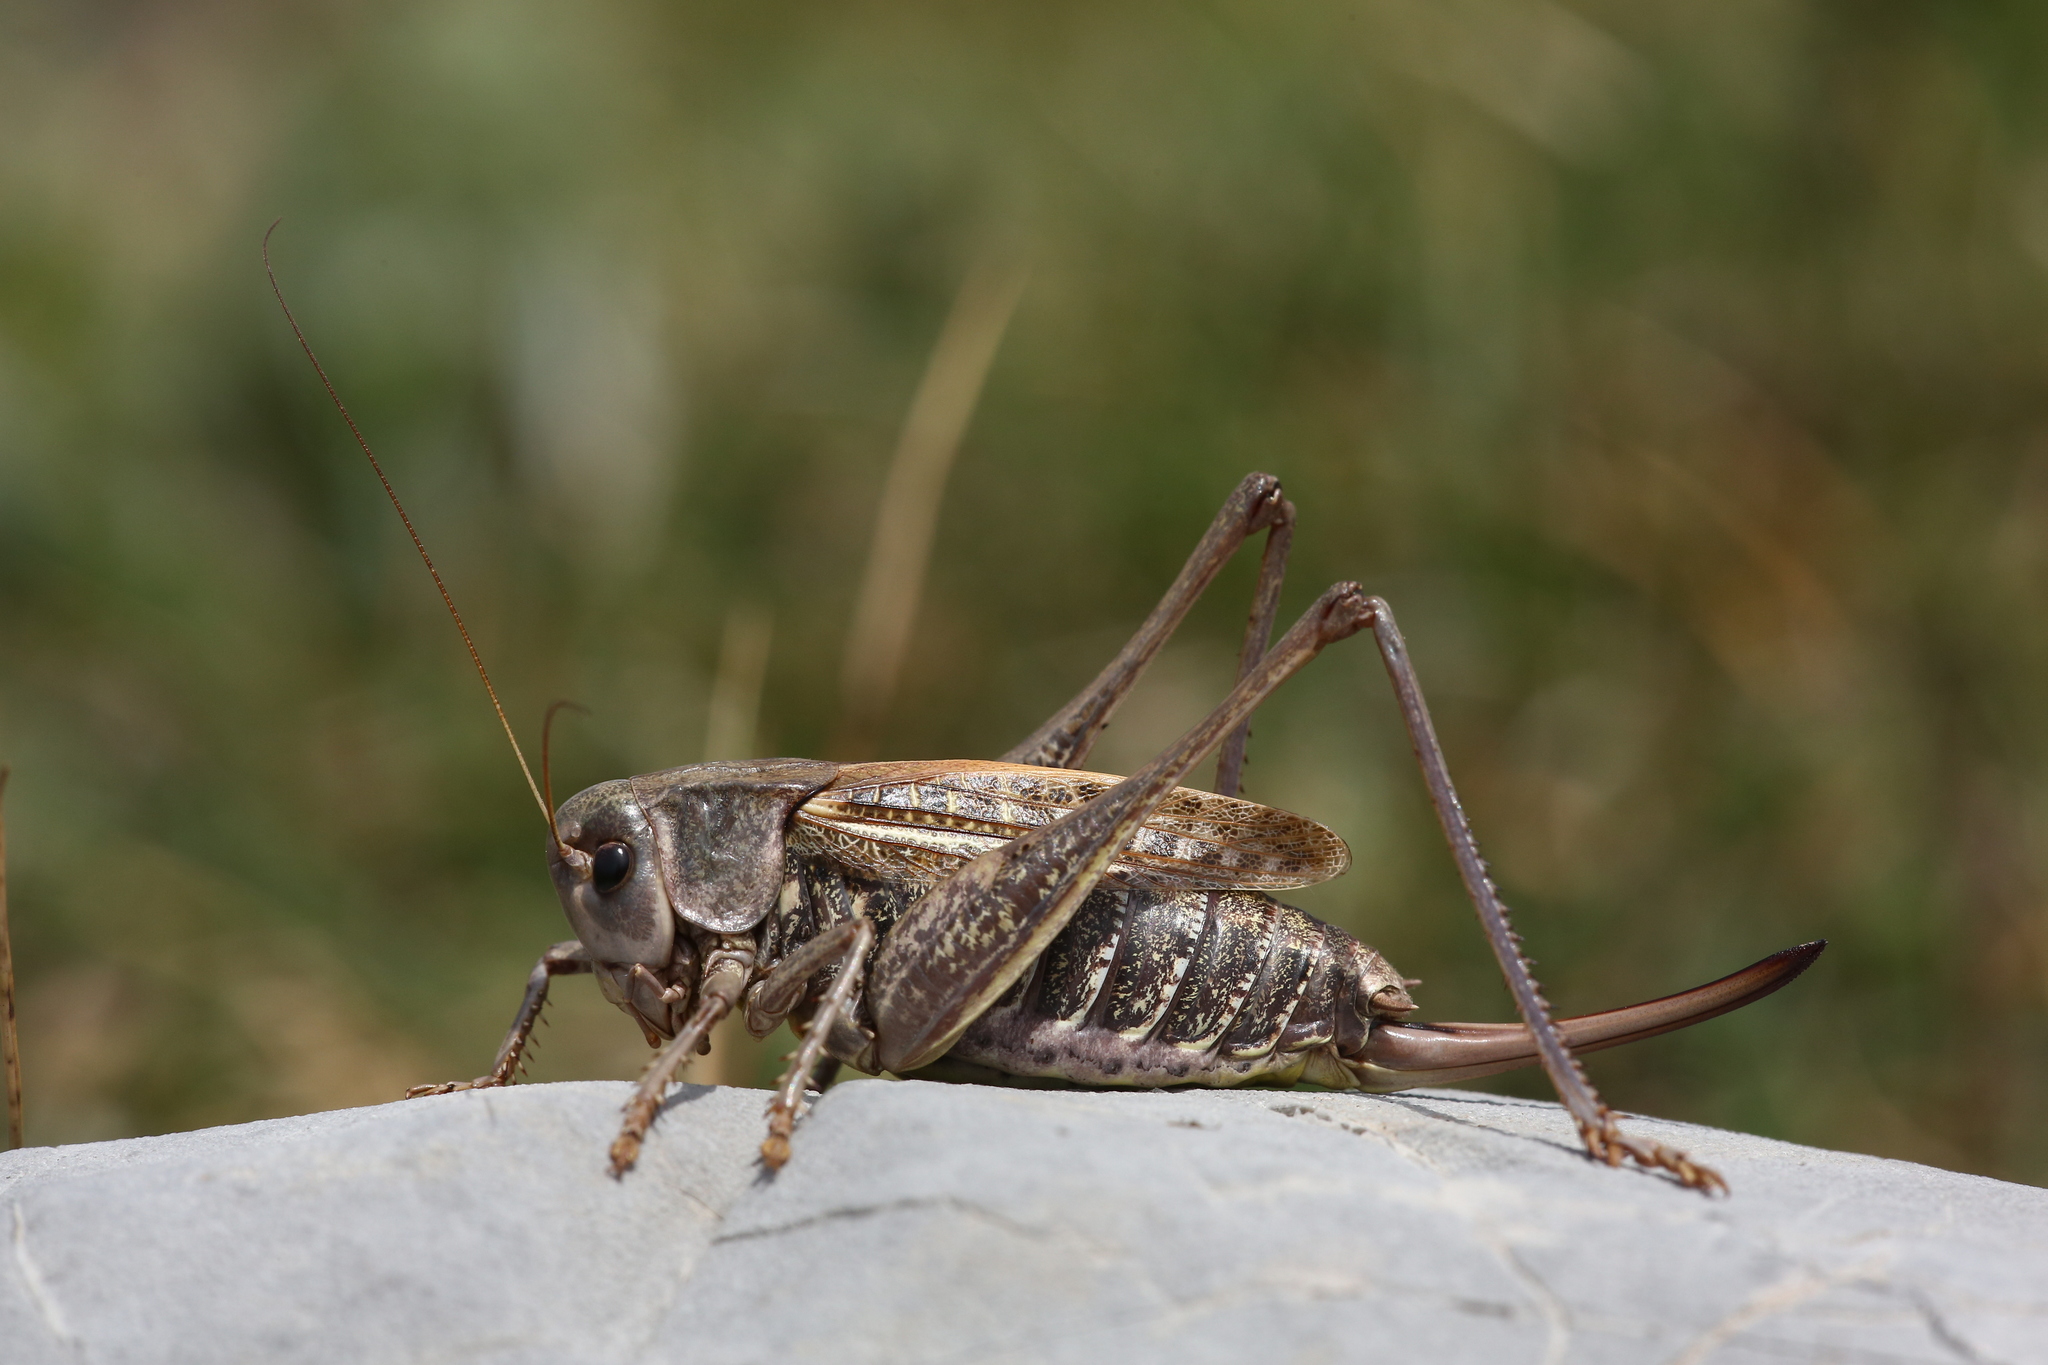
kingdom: Animalia
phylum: Arthropoda
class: Insecta
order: Orthoptera
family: Tettigoniidae
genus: Decticus
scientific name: Decticus verrucivorus
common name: Wart-biter
